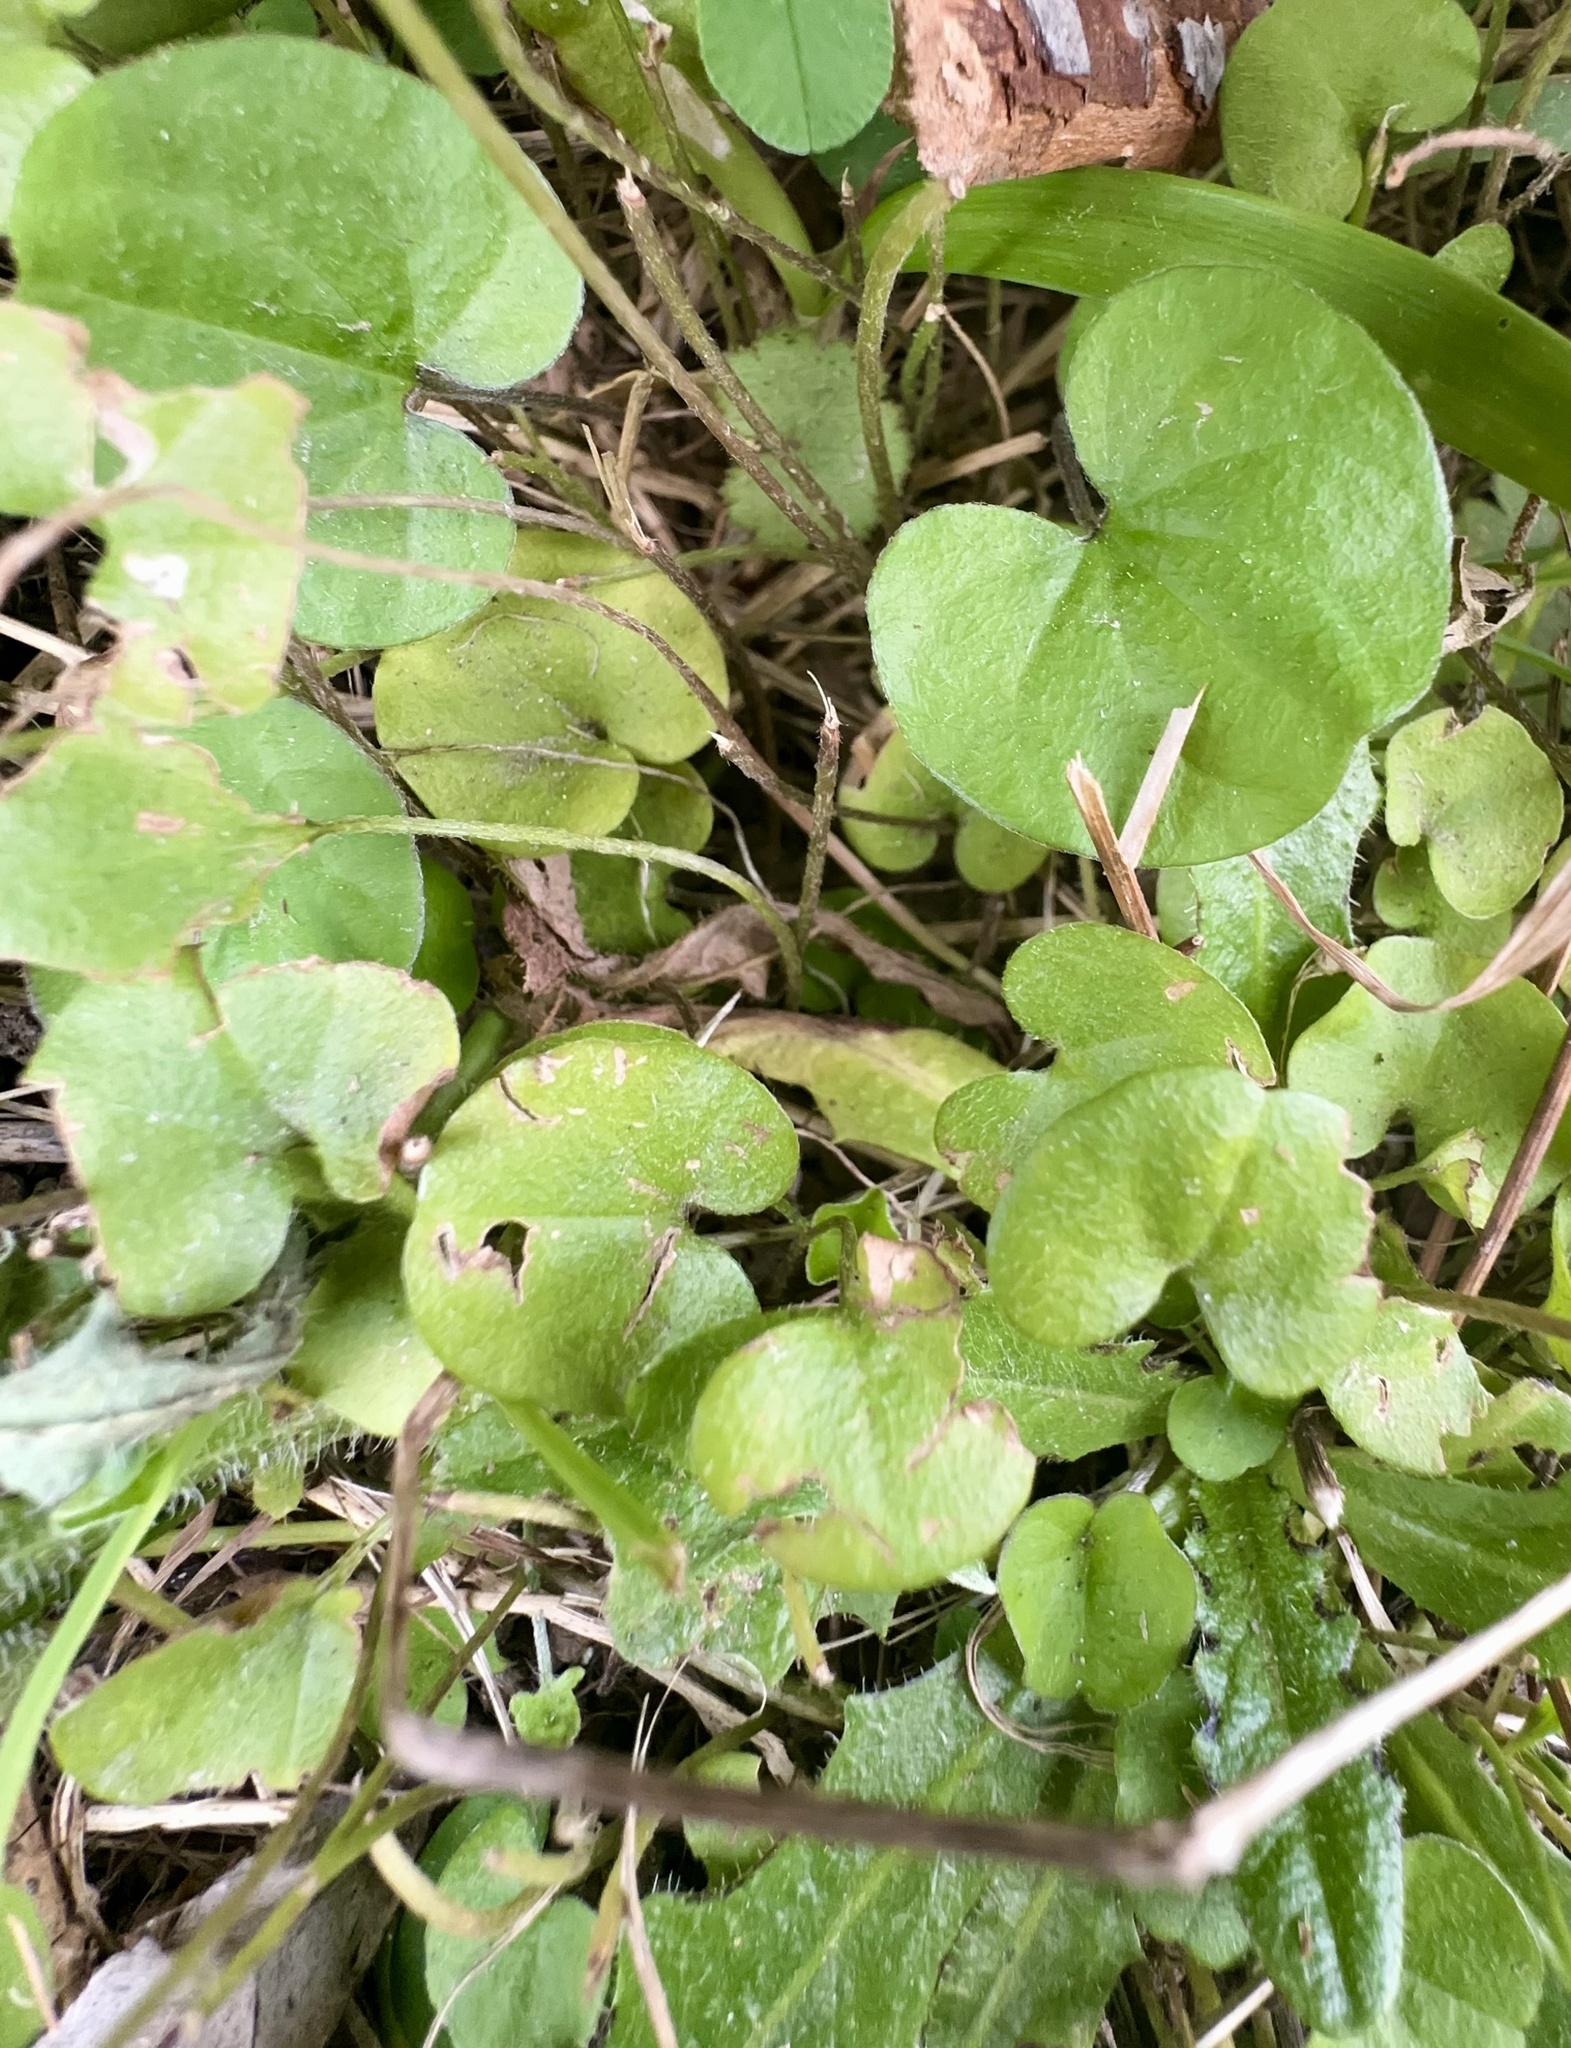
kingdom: Plantae
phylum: Tracheophyta
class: Magnoliopsida
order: Solanales
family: Convolvulaceae
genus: Dichondra
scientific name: Dichondra repens
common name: Kidneyweed
